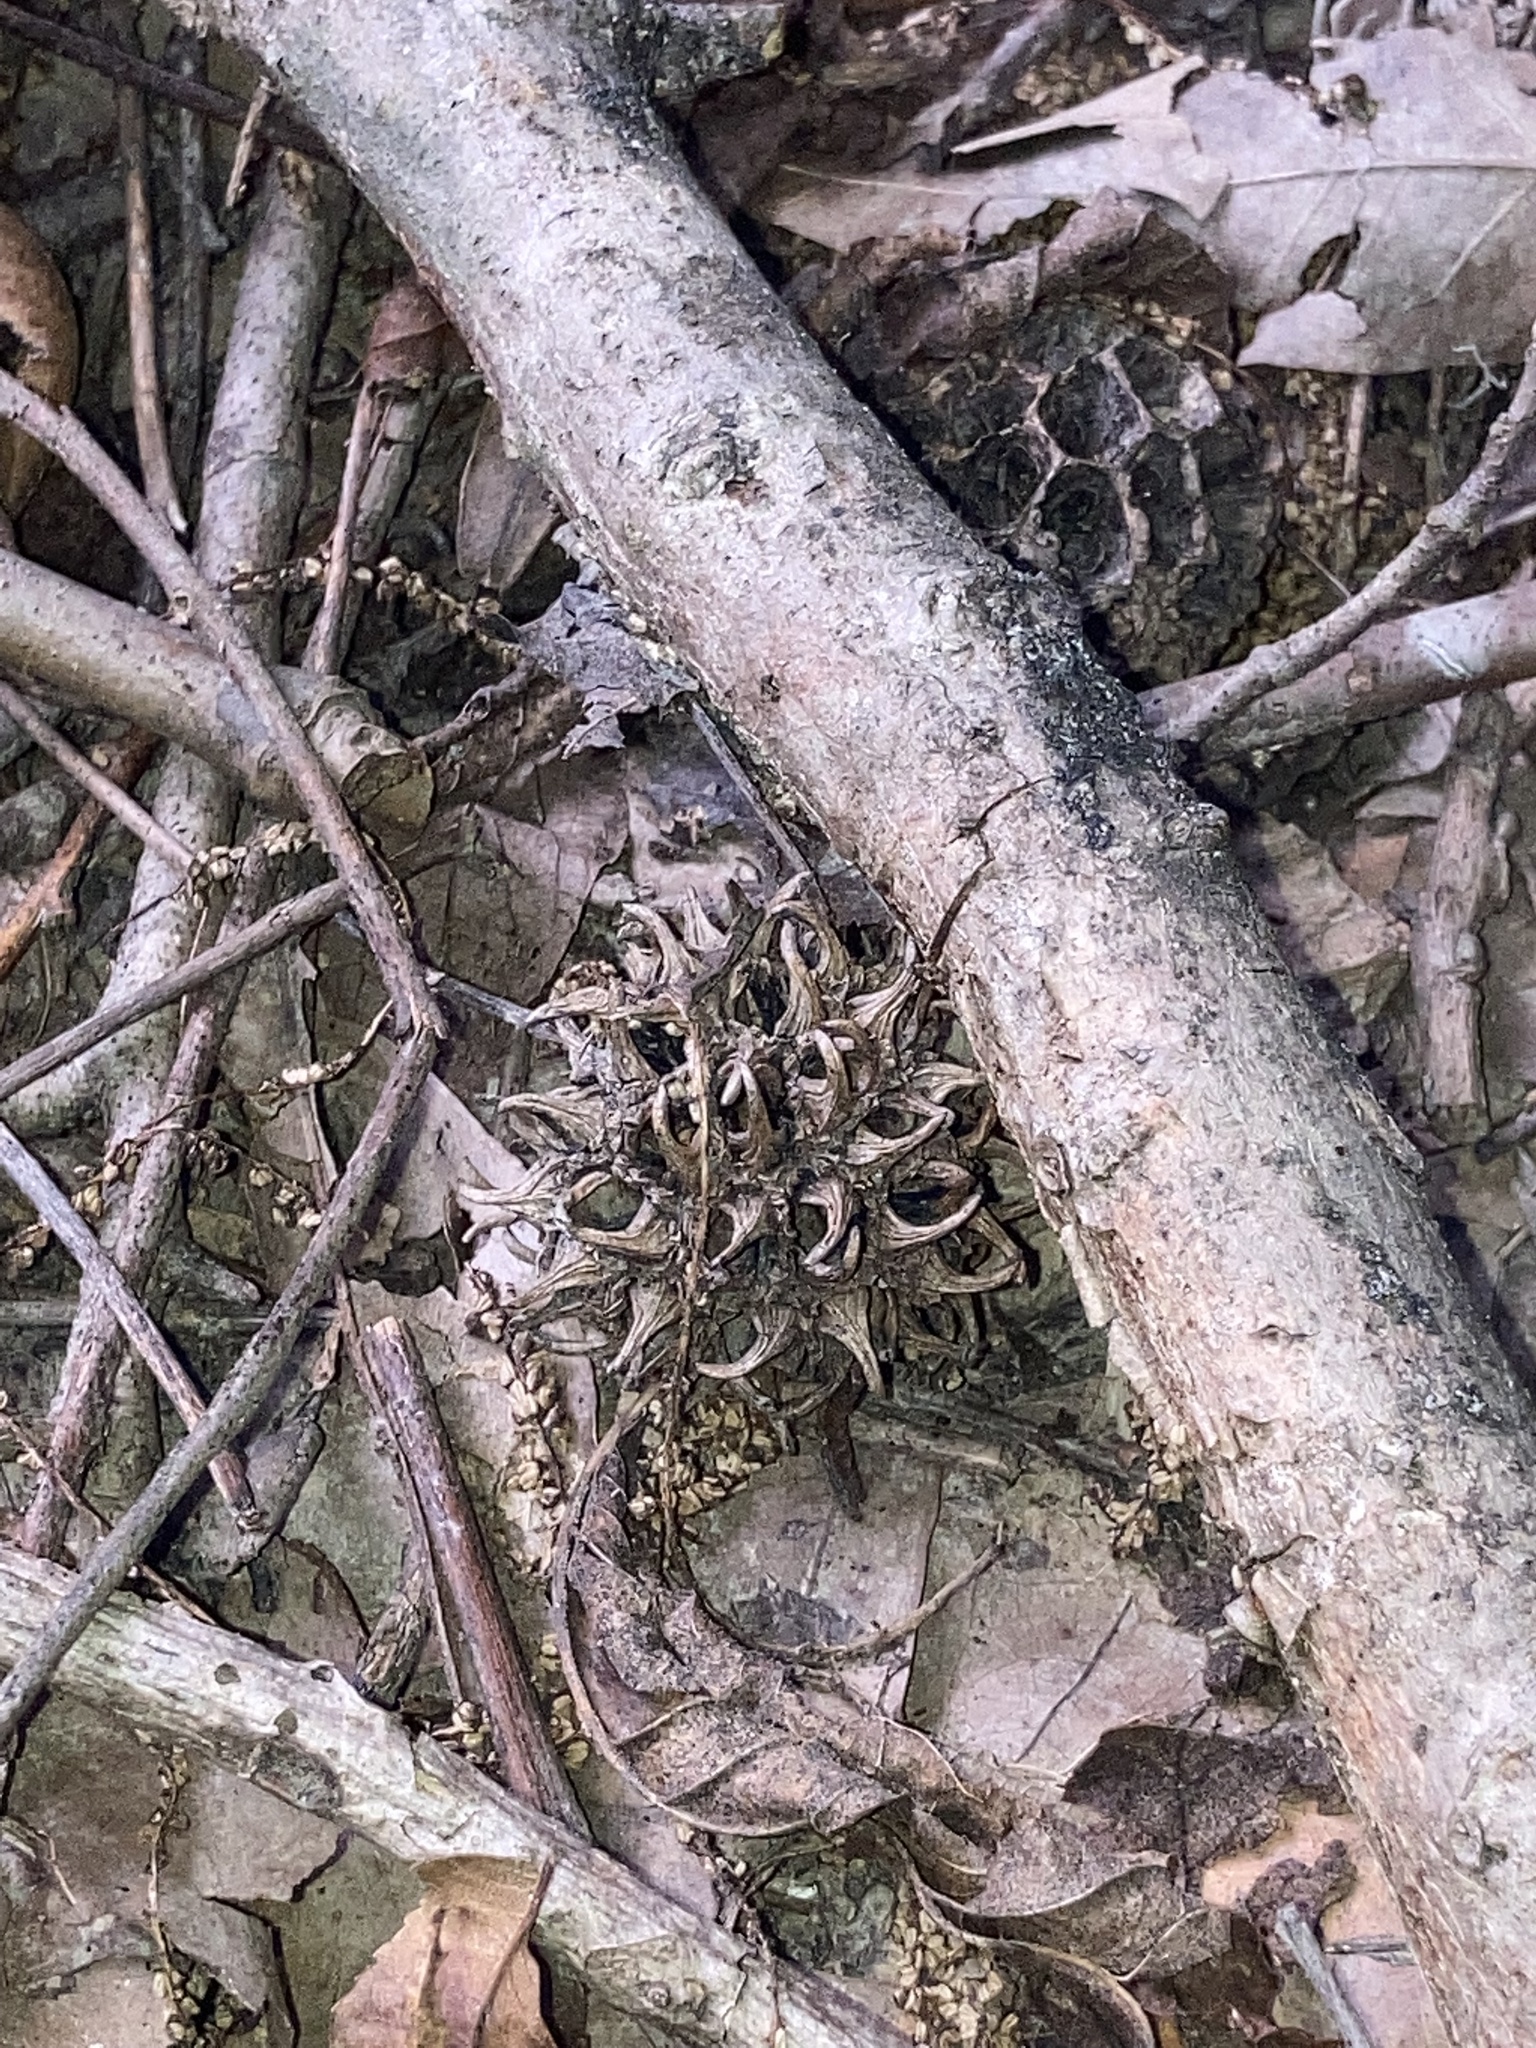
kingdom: Plantae
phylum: Tracheophyta
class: Magnoliopsida
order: Saxifragales
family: Altingiaceae
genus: Liquidambar
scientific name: Liquidambar styraciflua
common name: Sweet gum
